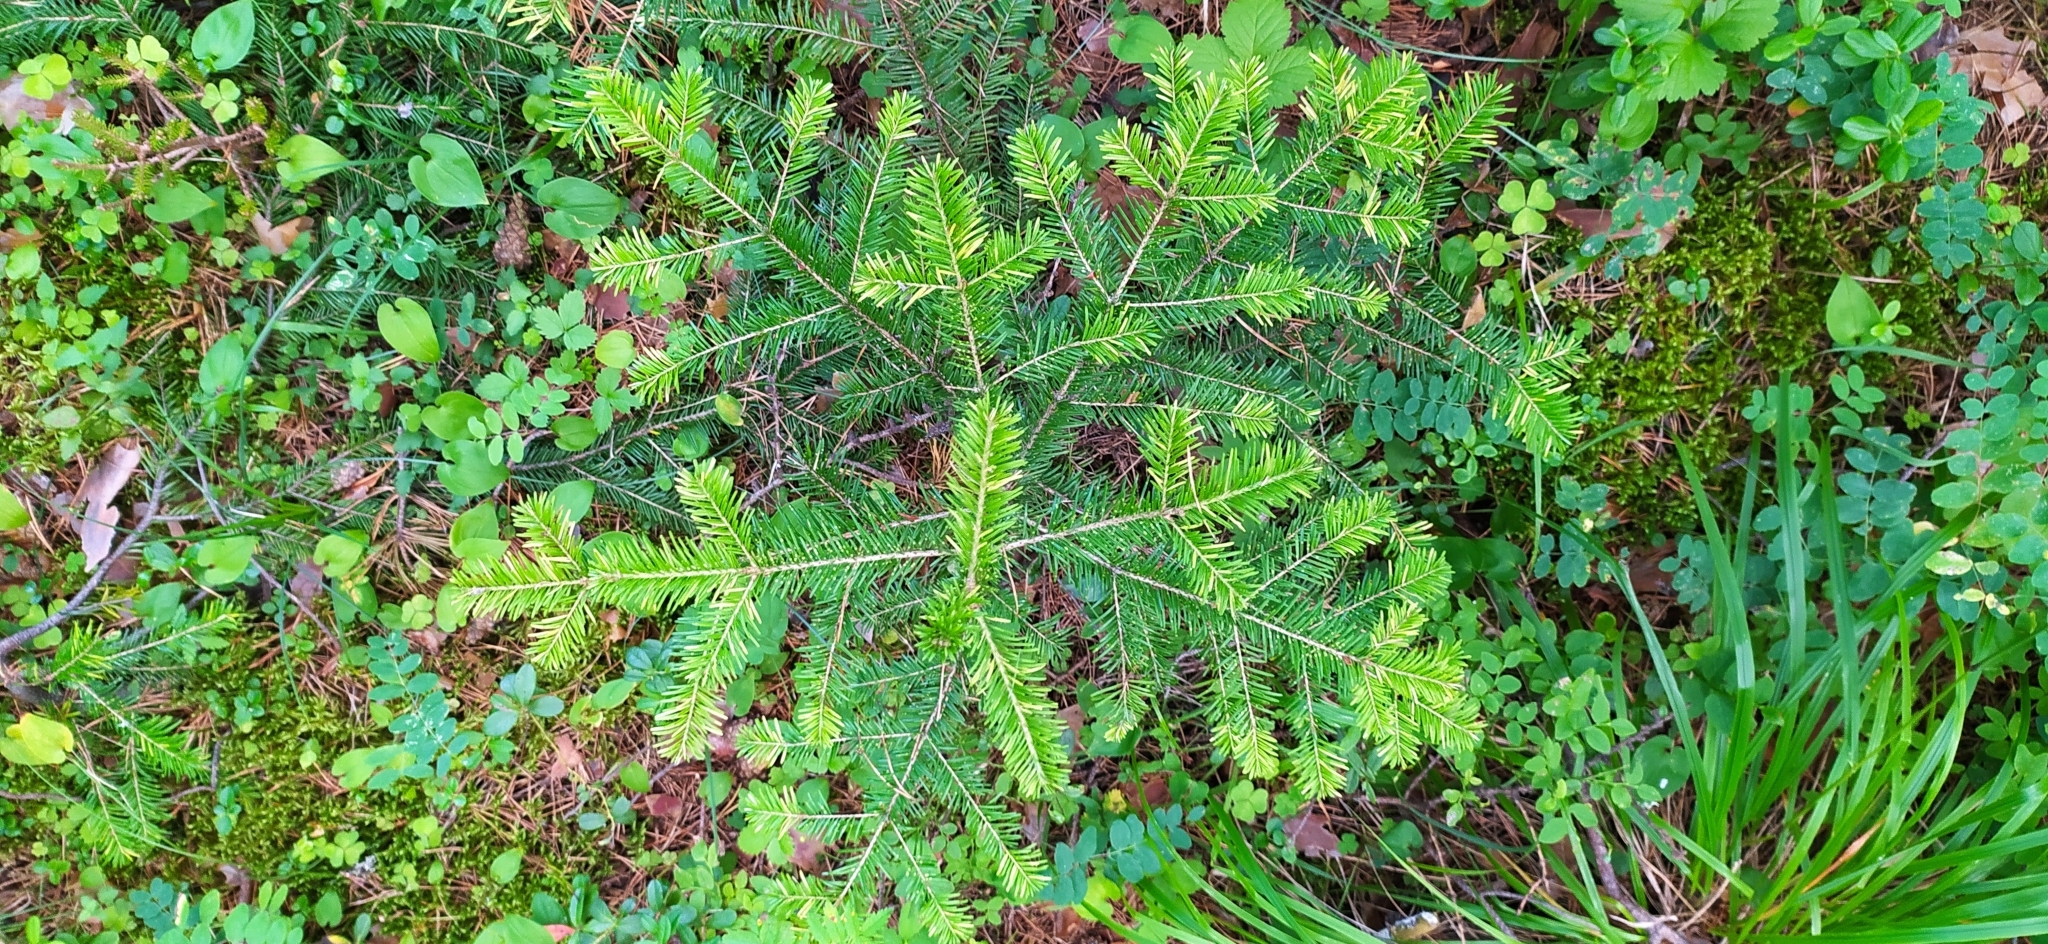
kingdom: Plantae
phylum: Tracheophyta
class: Pinopsida
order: Pinales
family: Pinaceae
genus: Abies
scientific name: Abies sibirica
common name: Siberian fir
